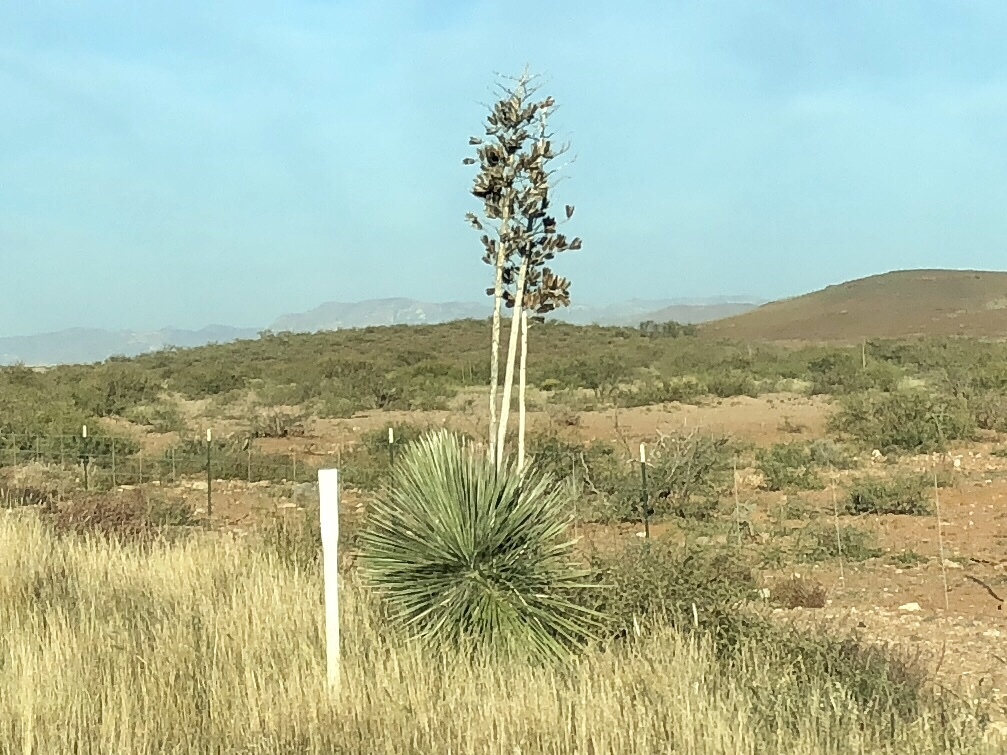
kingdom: Plantae
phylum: Tracheophyta
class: Liliopsida
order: Asparagales
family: Asparagaceae
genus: Yucca
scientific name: Yucca elata
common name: Palmella
